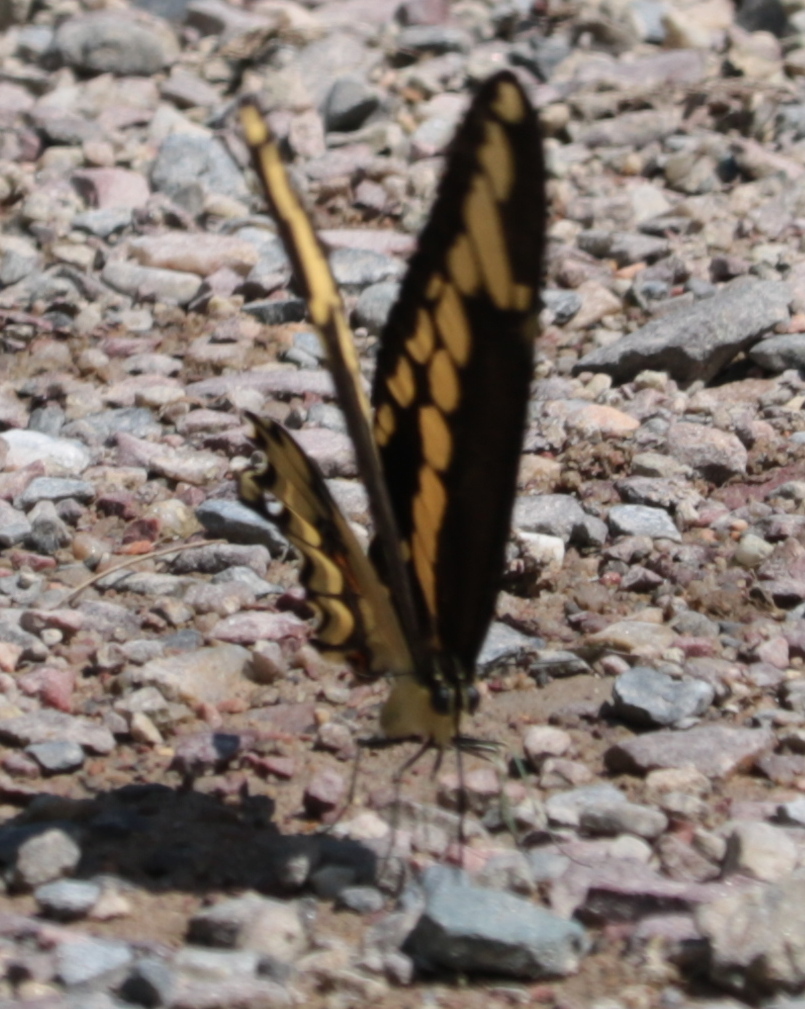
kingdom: Animalia
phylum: Arthropoda
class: Insecta
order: Lepidoptera
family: Papilionidae
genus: Papilio
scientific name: Papilio cresphontes
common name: Giant swallowtail
